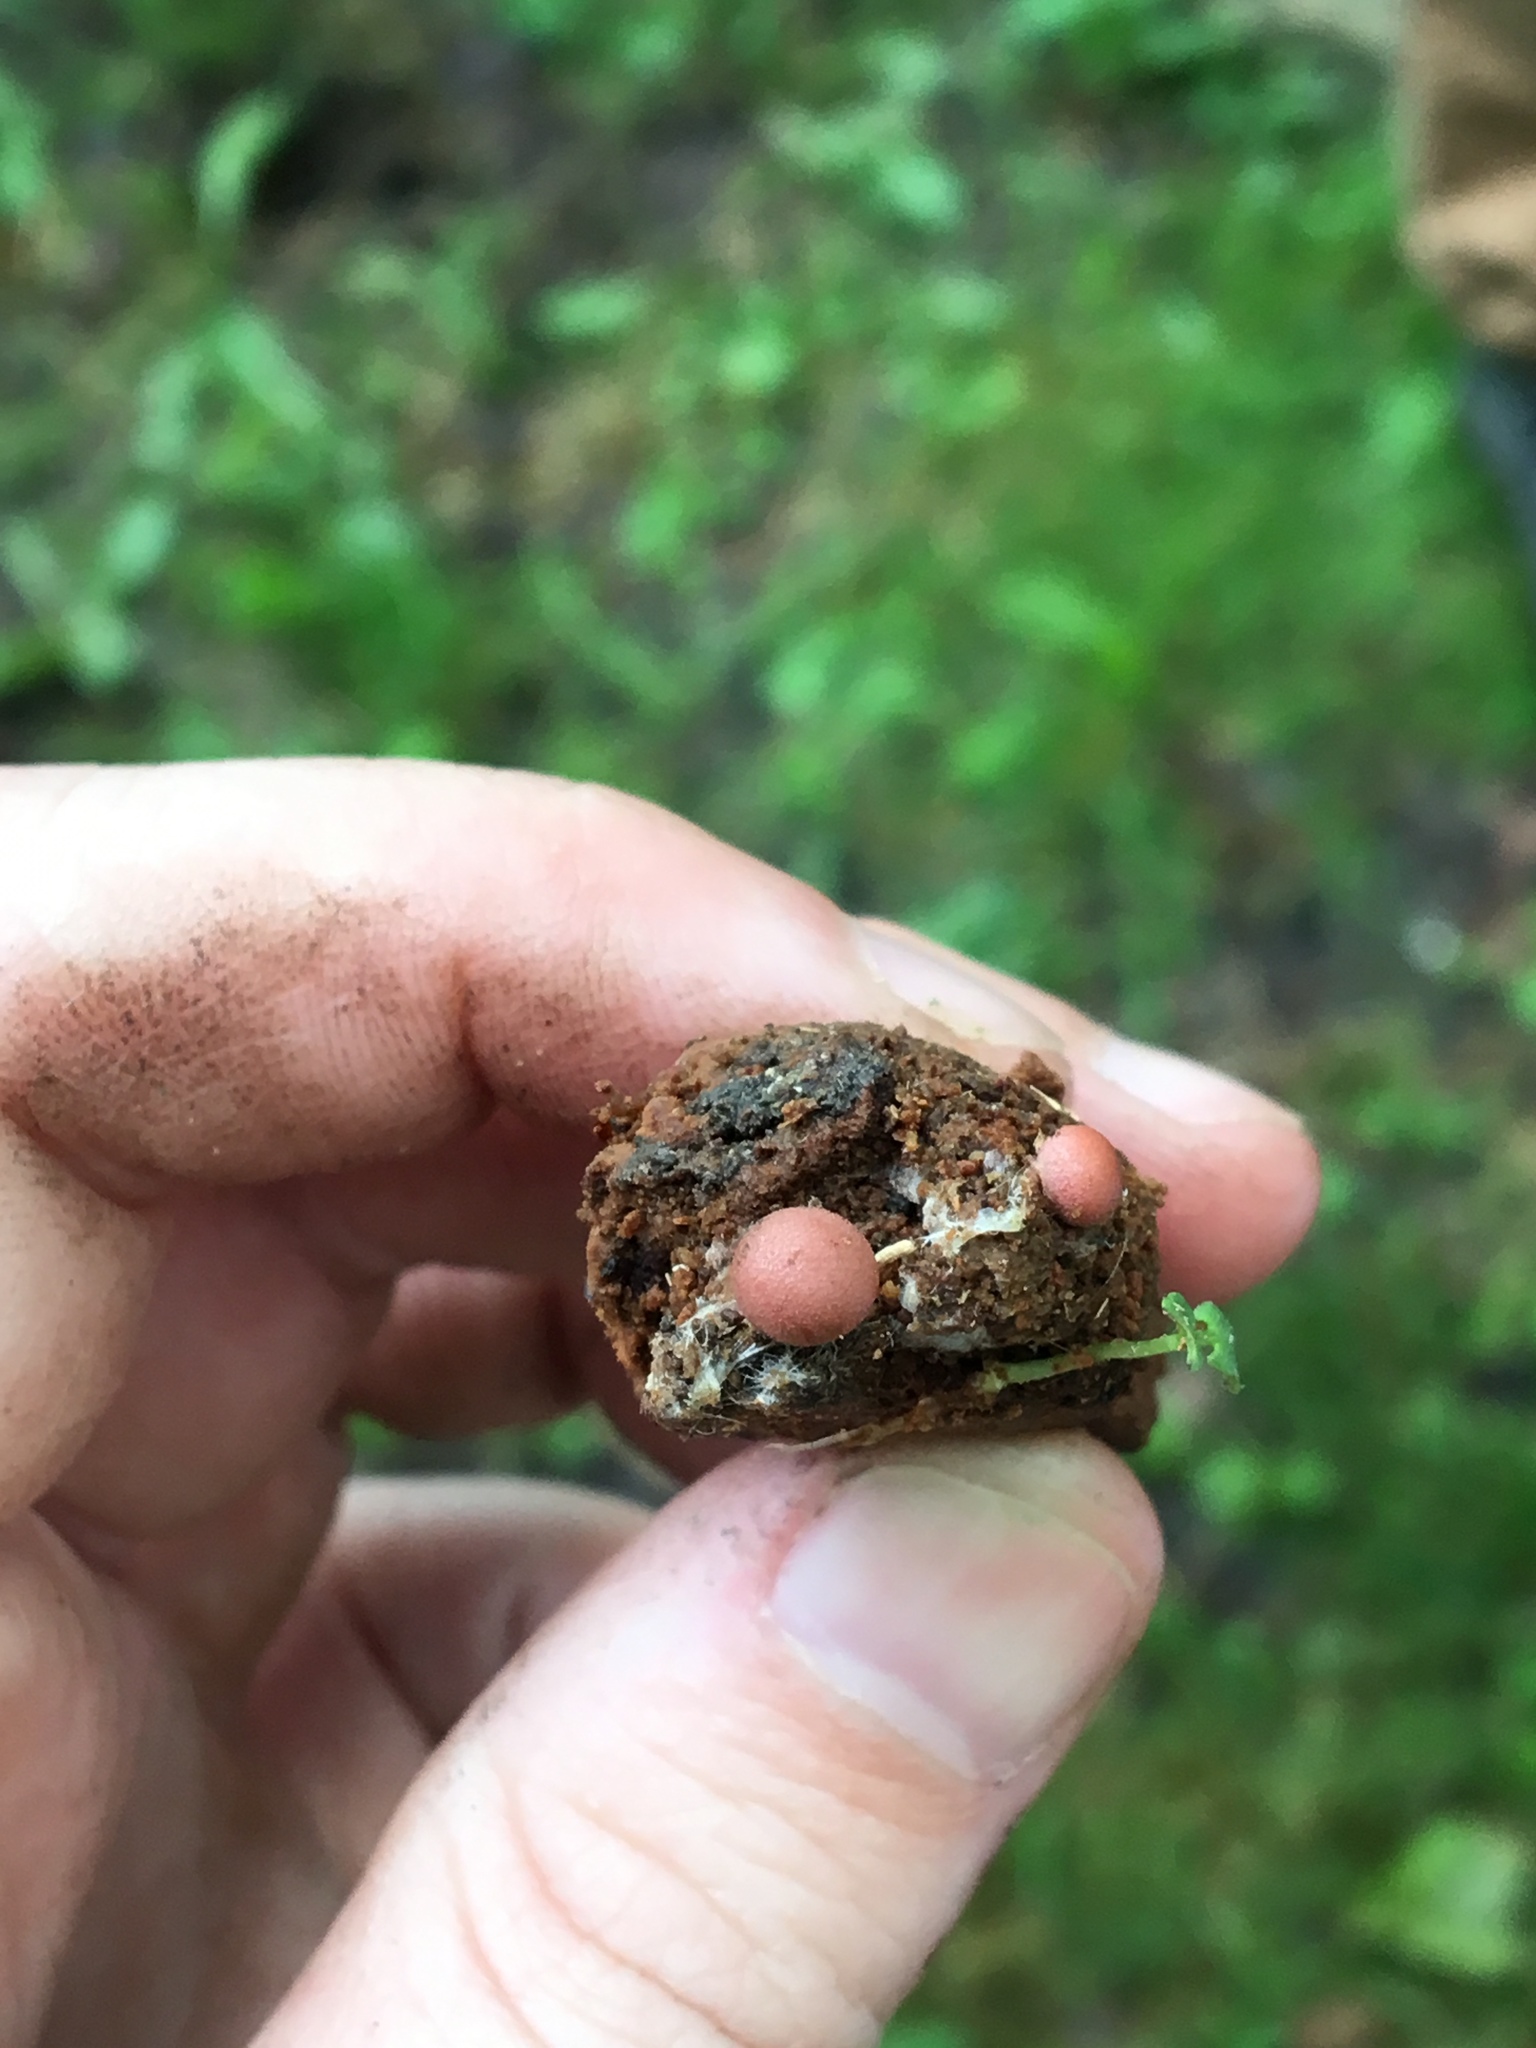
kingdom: Protozoa
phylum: Mycetozoa
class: Myxomycetes
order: Cribrariales
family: Tubiferaceae
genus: Lycogala
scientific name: Lycogala epidendrum
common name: Wolf's milk
